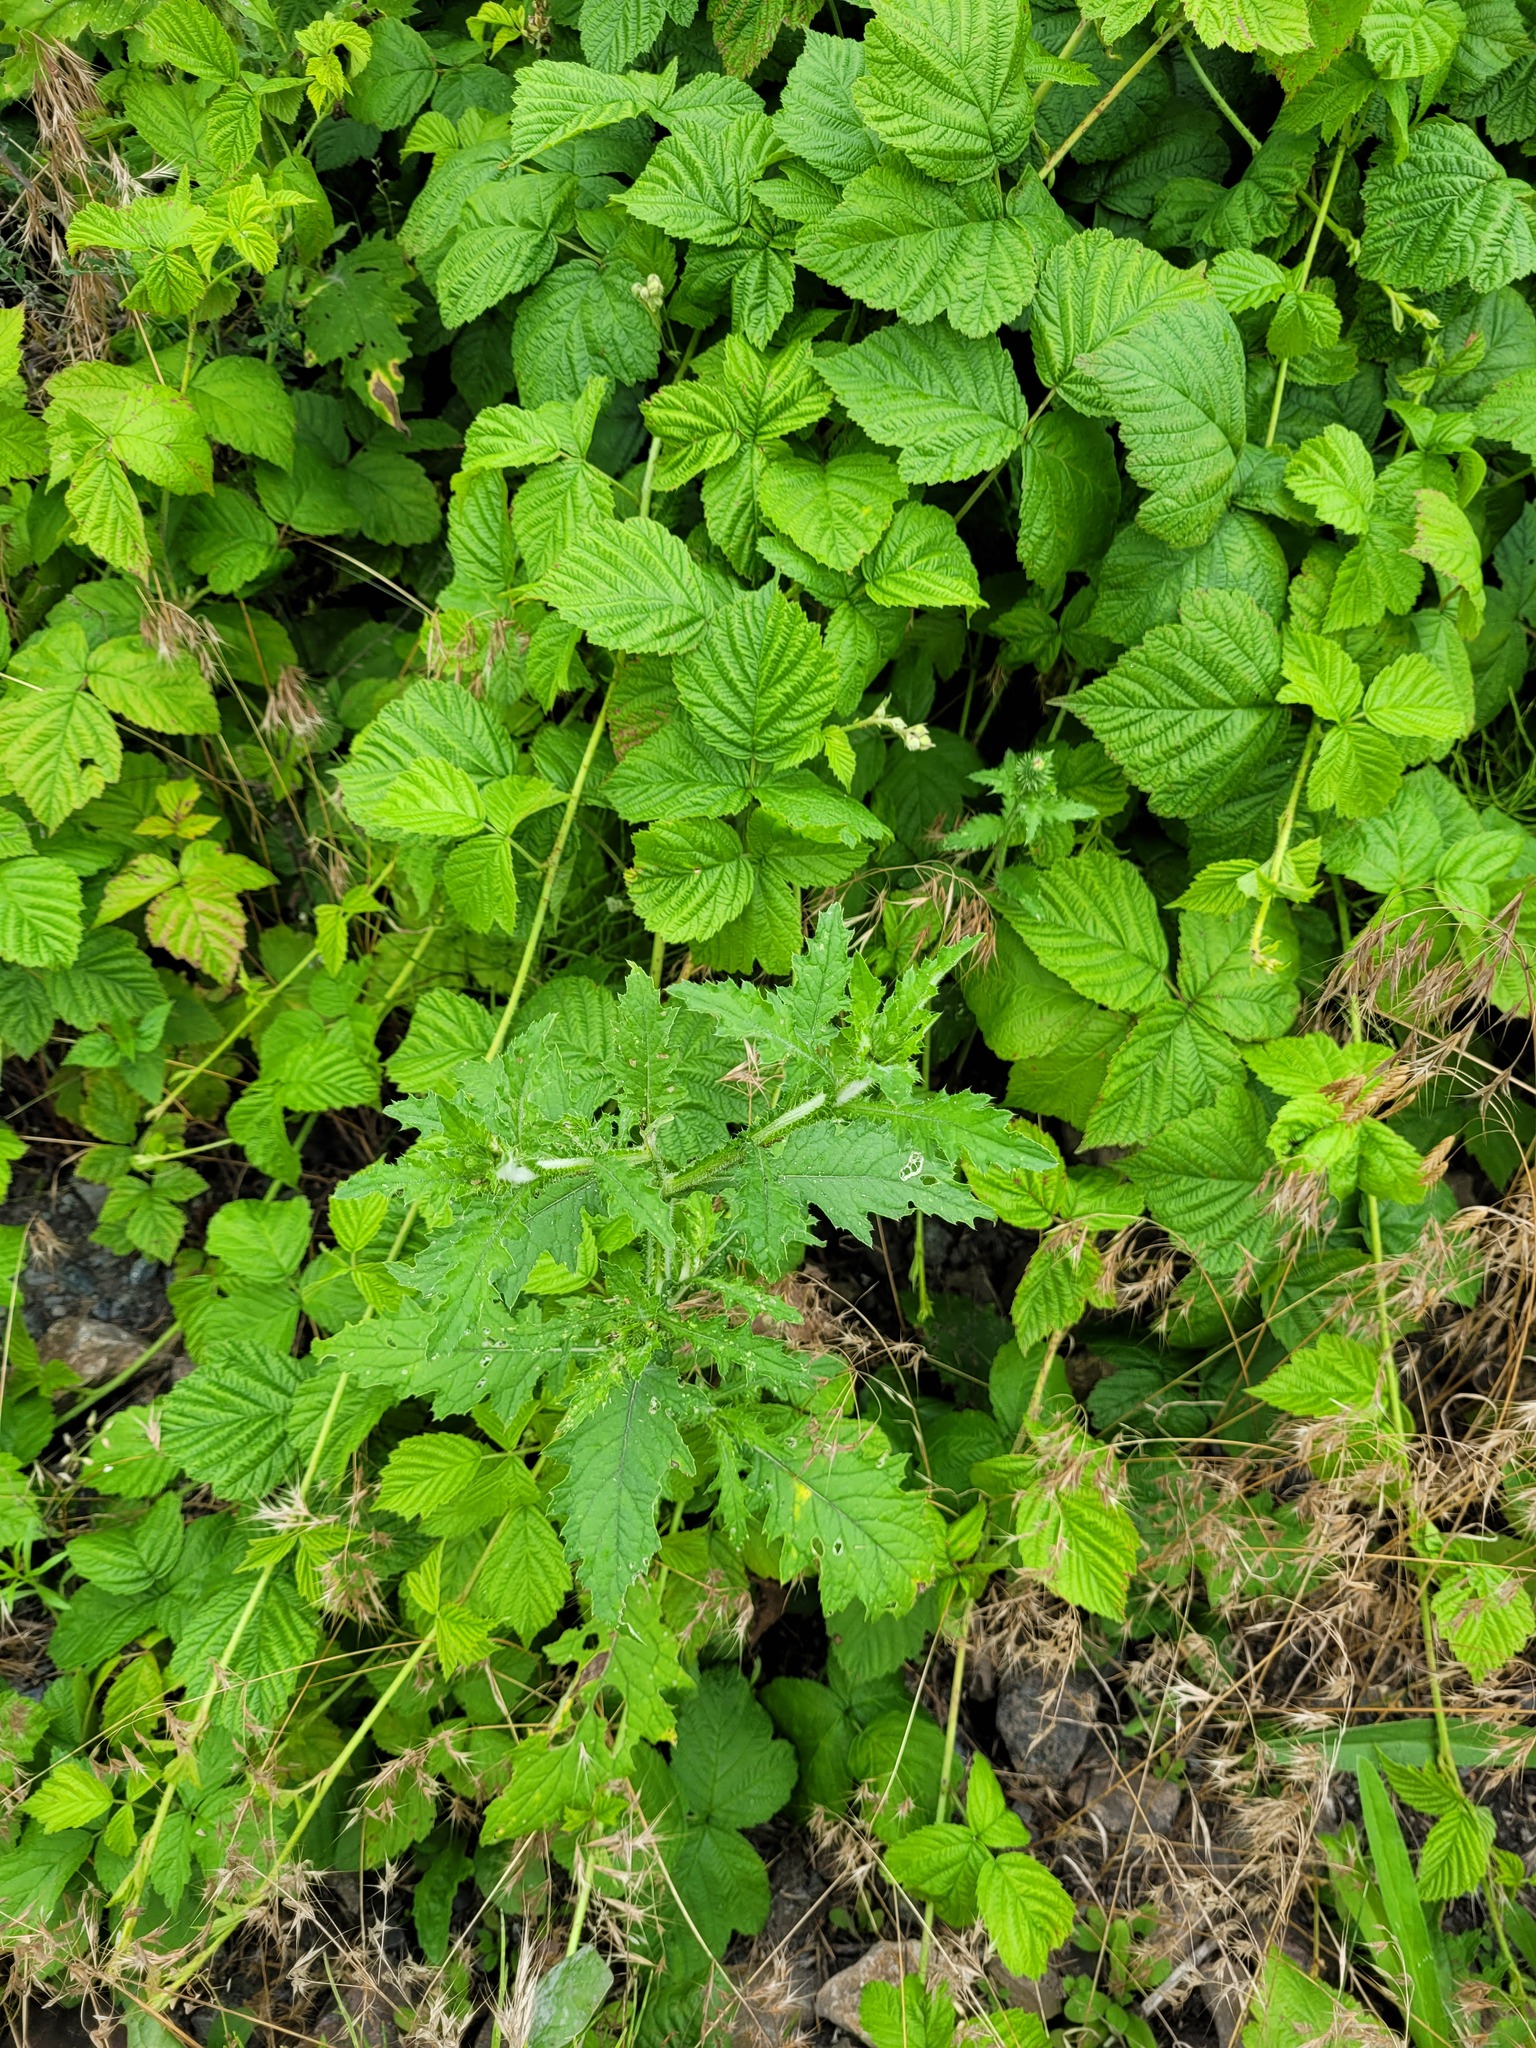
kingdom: Plantae
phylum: Tracheophyta
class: Magnoliopsida
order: Asterales
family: Asteraceae
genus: Carduus
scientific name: Carduus crispus
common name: Welted thistle
